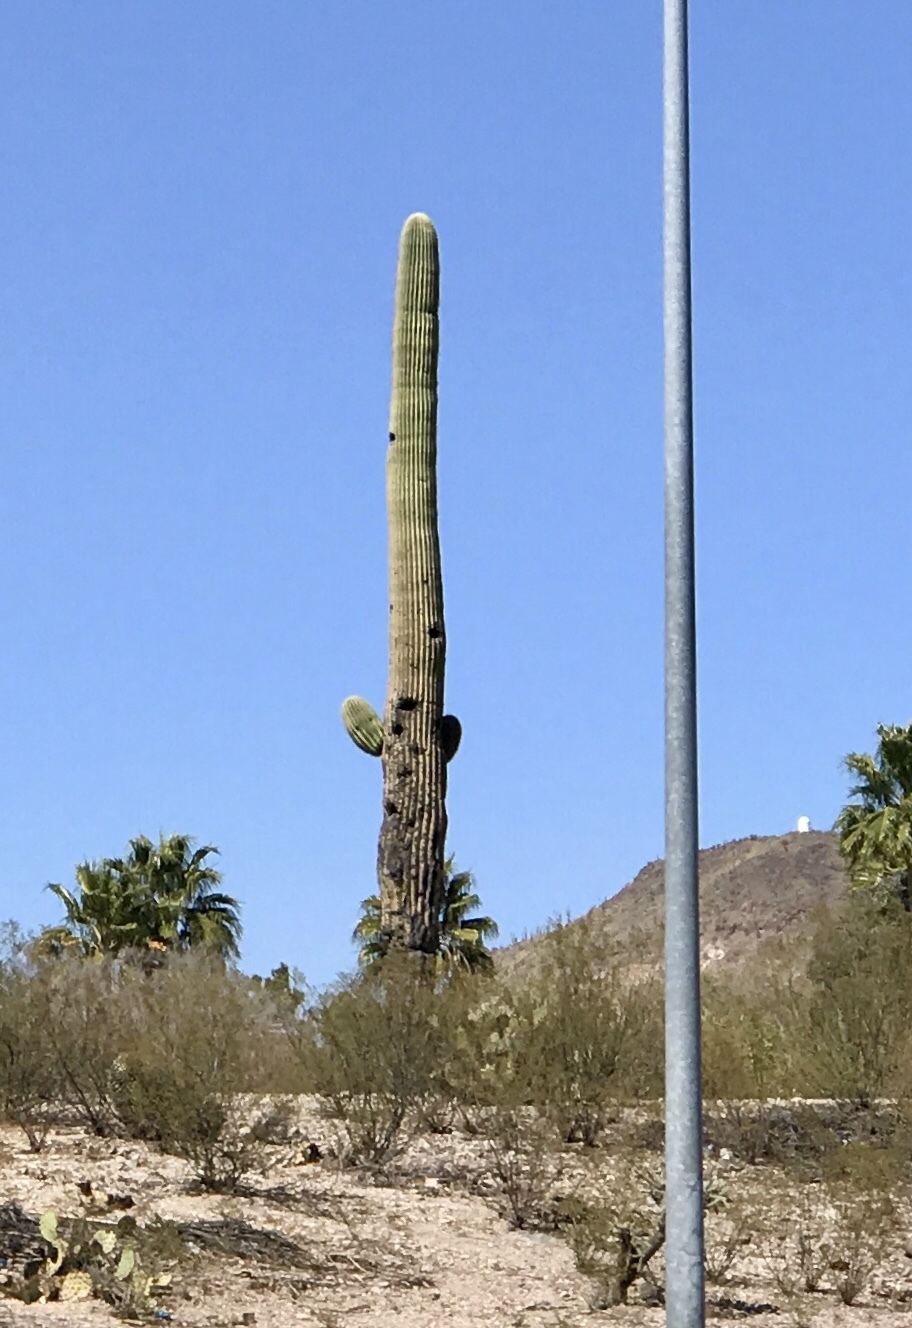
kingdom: Plantae
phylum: Tracheophyta
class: Magnoliopsida
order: Caryophyllales
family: Cactaceae
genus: Carnegiea
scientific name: Carnegiea gigantea
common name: Saguaro
